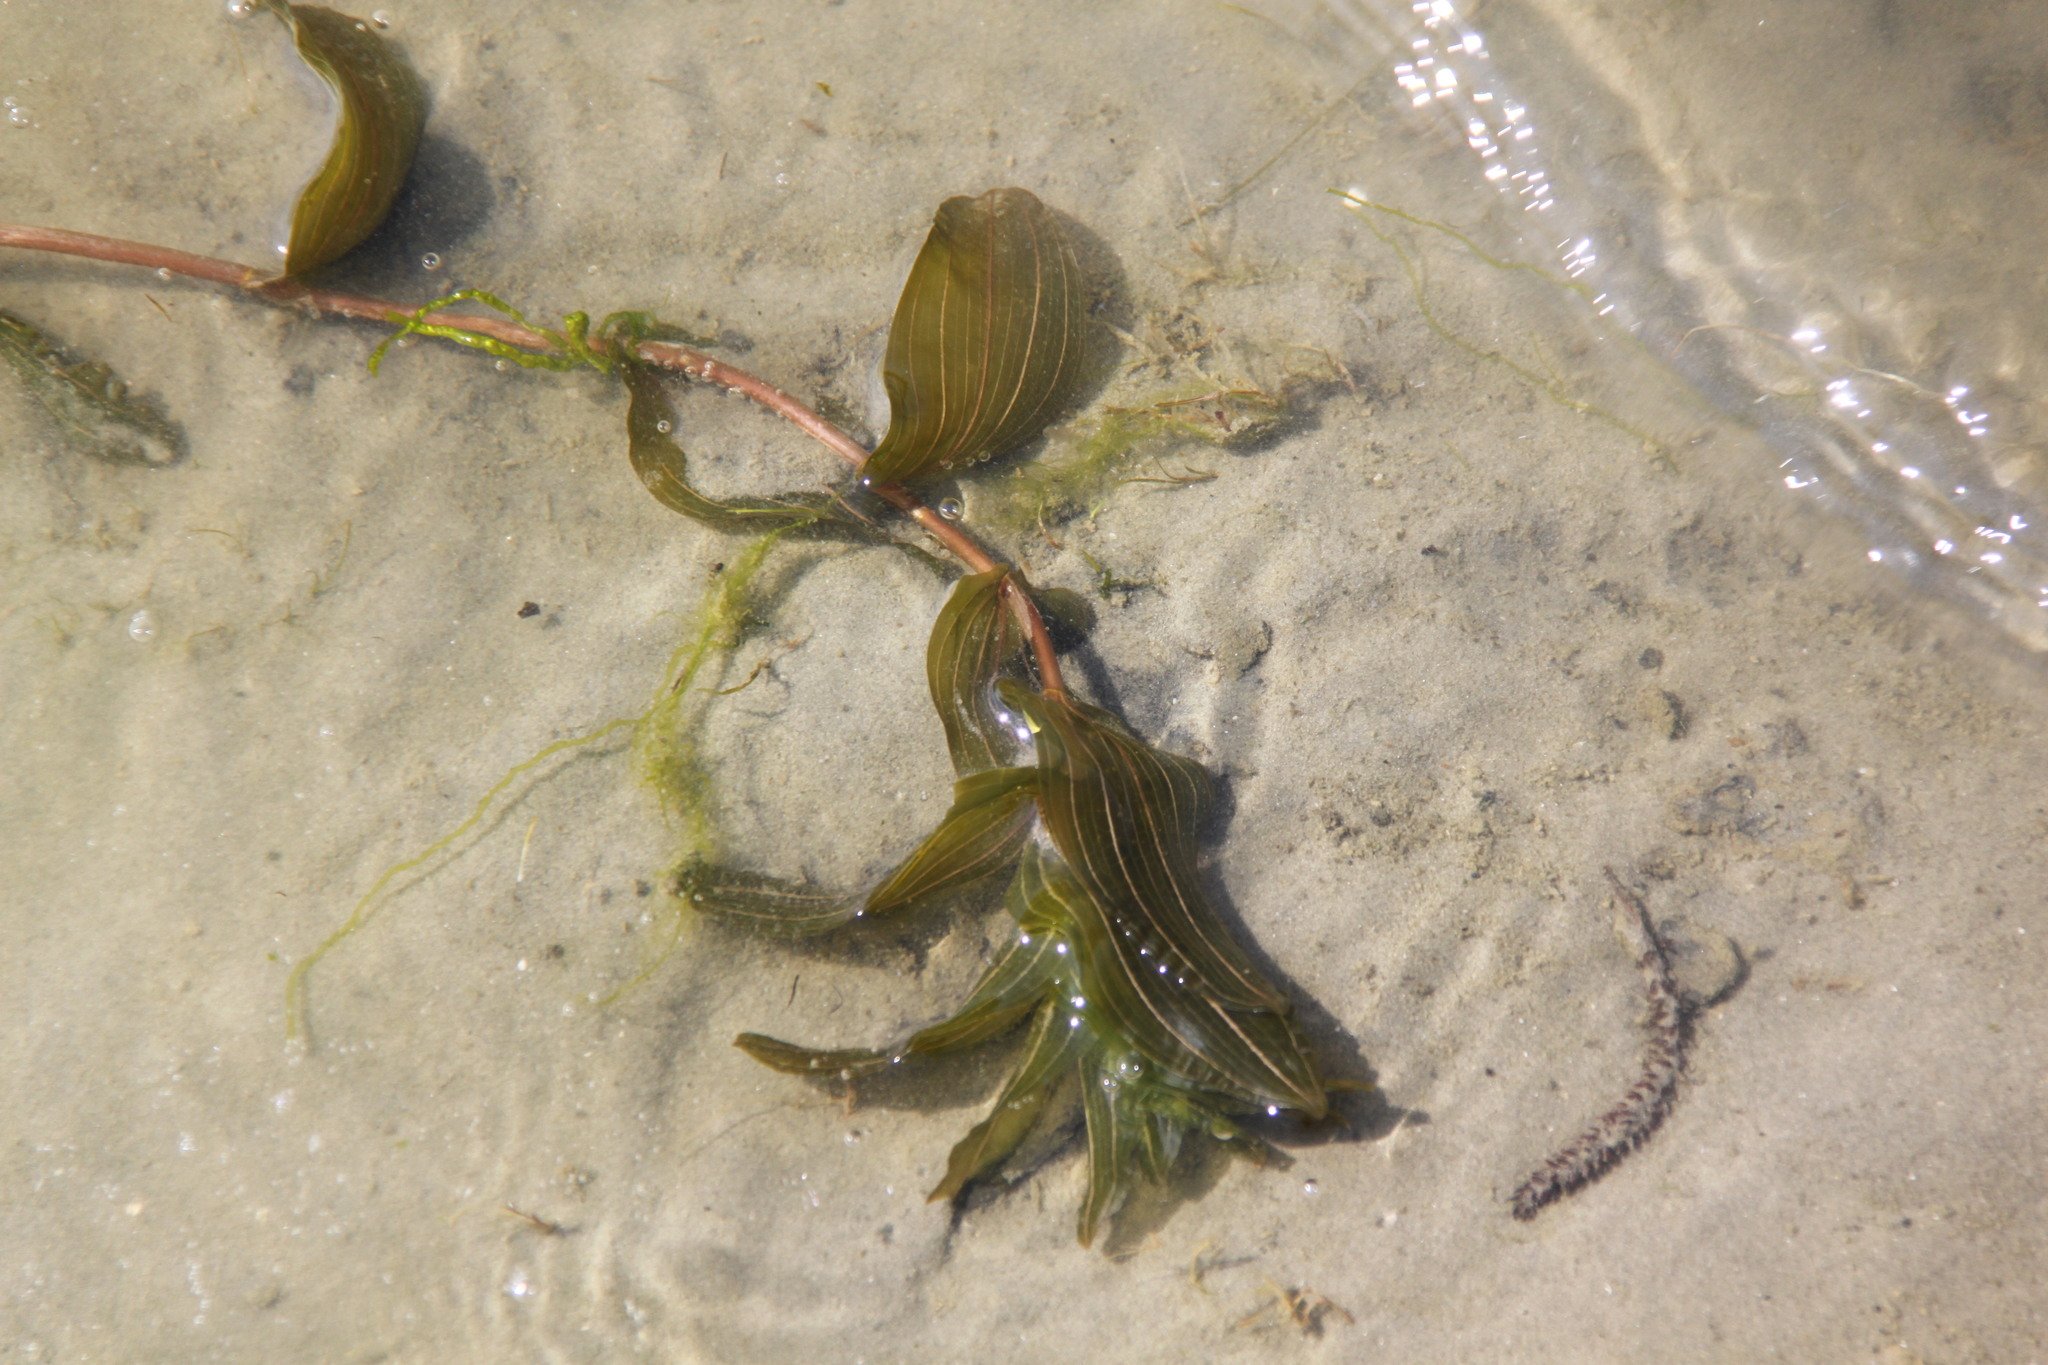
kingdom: Plantae
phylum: Tracheophyta
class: Liliopsida
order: Alismatales
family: Potamogetonaceae
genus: Potamogeton
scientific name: Potamogeton perfoliatus
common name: Perfoliate pondweed
